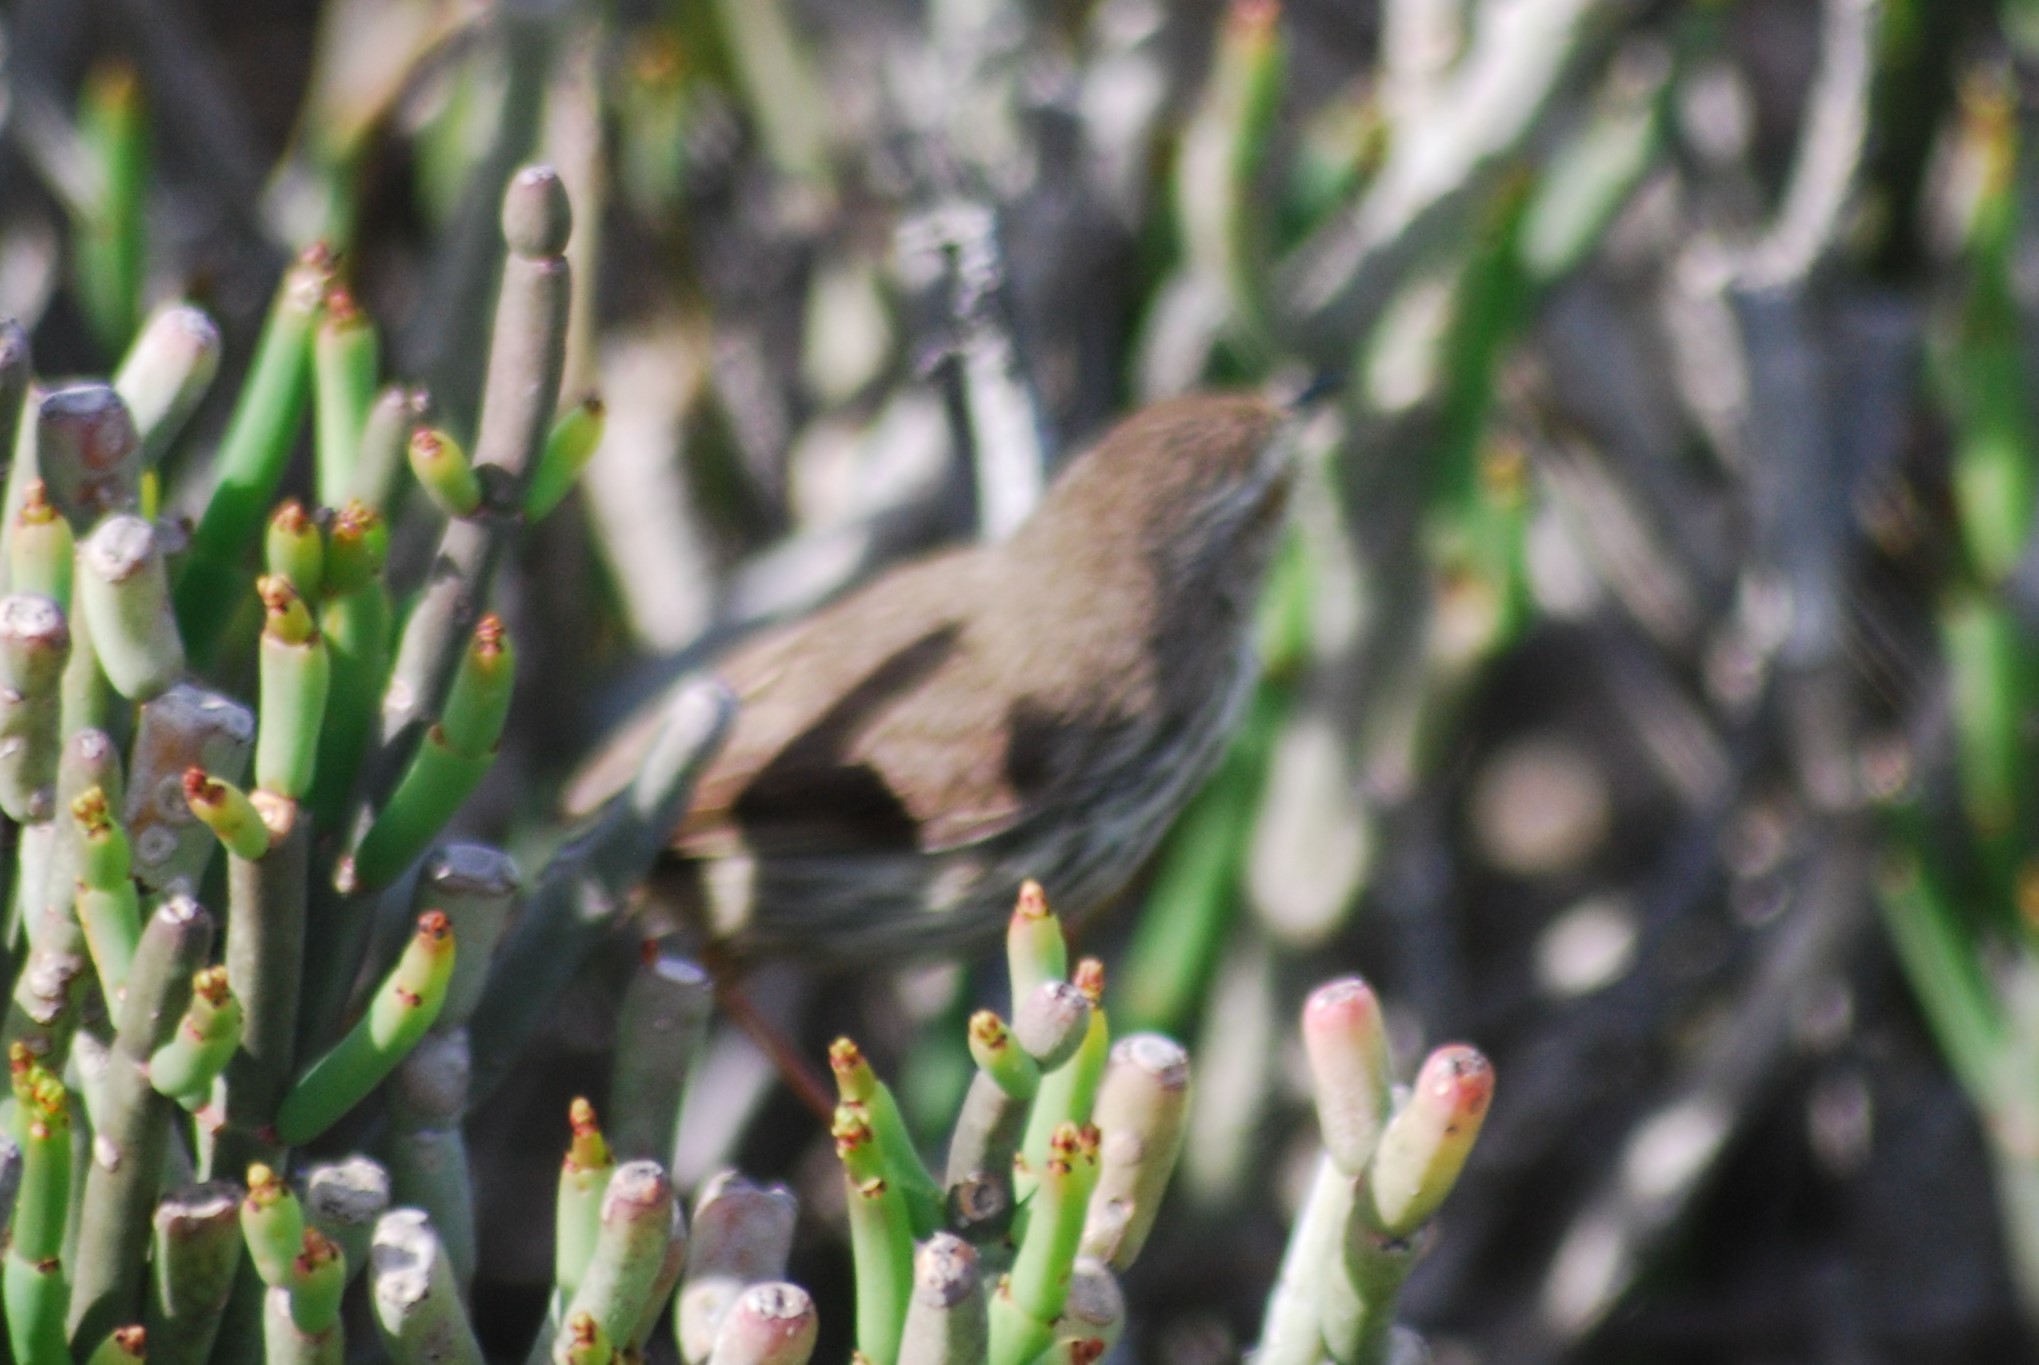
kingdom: Animalia
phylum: Chordata
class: Aves
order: Passeriformes
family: Cisticolidae
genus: Prinia
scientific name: Prinia maculosa
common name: Karoo prinia
